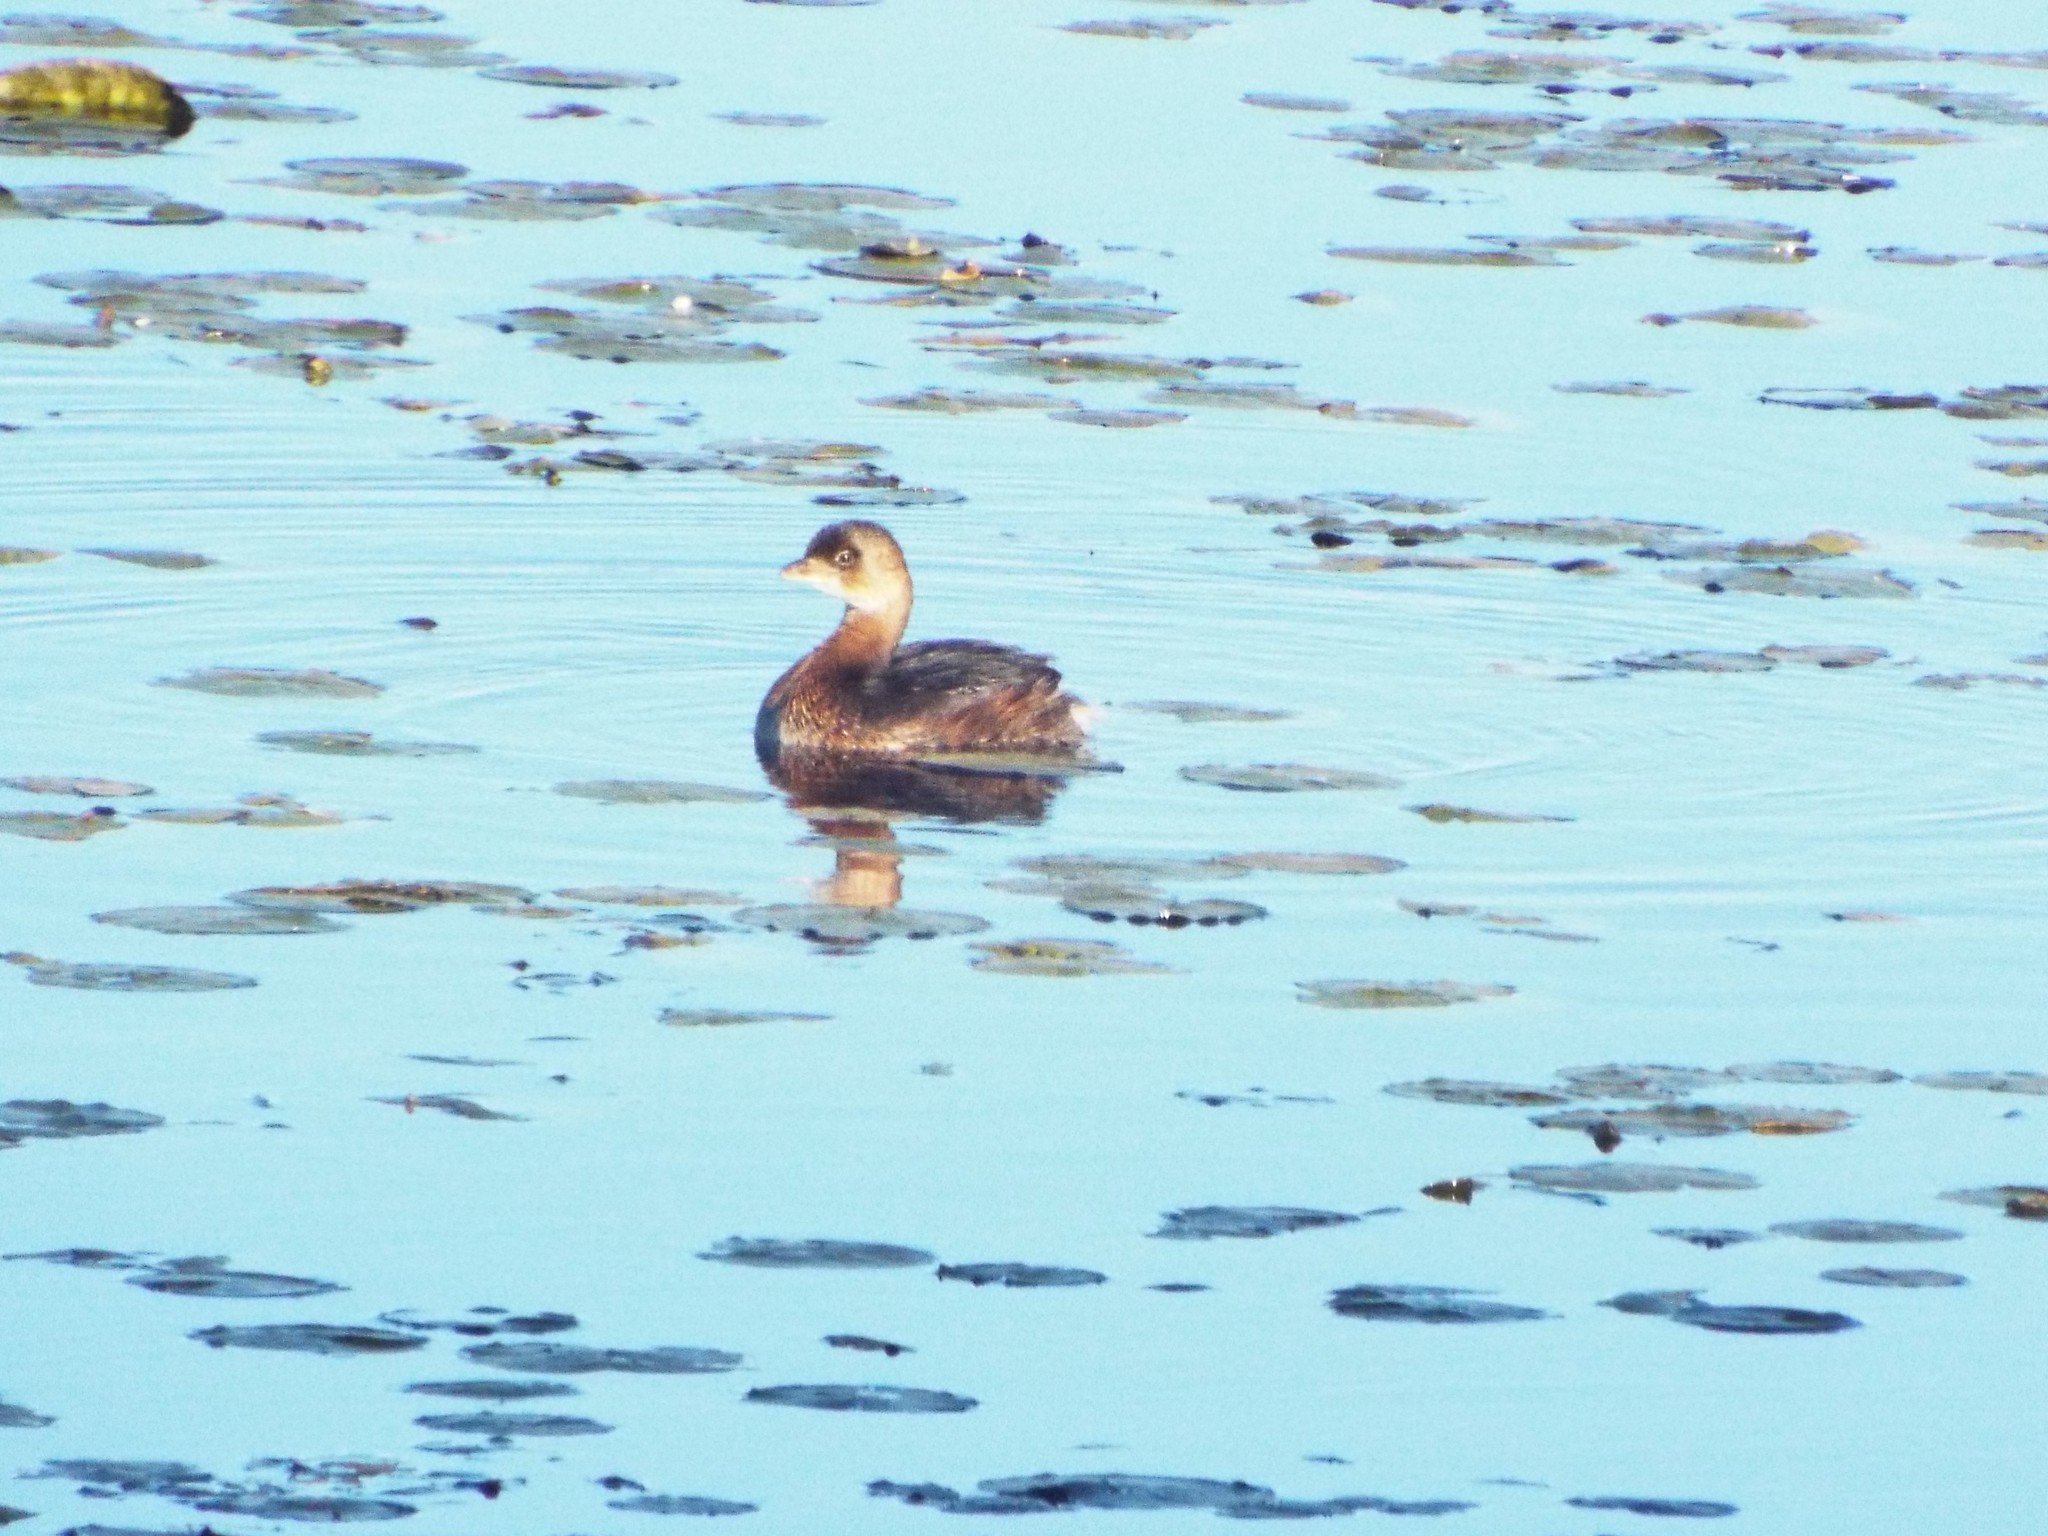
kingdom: Animalia
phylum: Chordata
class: Aves
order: Podicipediformes
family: Podicipedidae
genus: Podilymbus
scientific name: Podilymbus podiceps
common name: Pied-billed grebe
